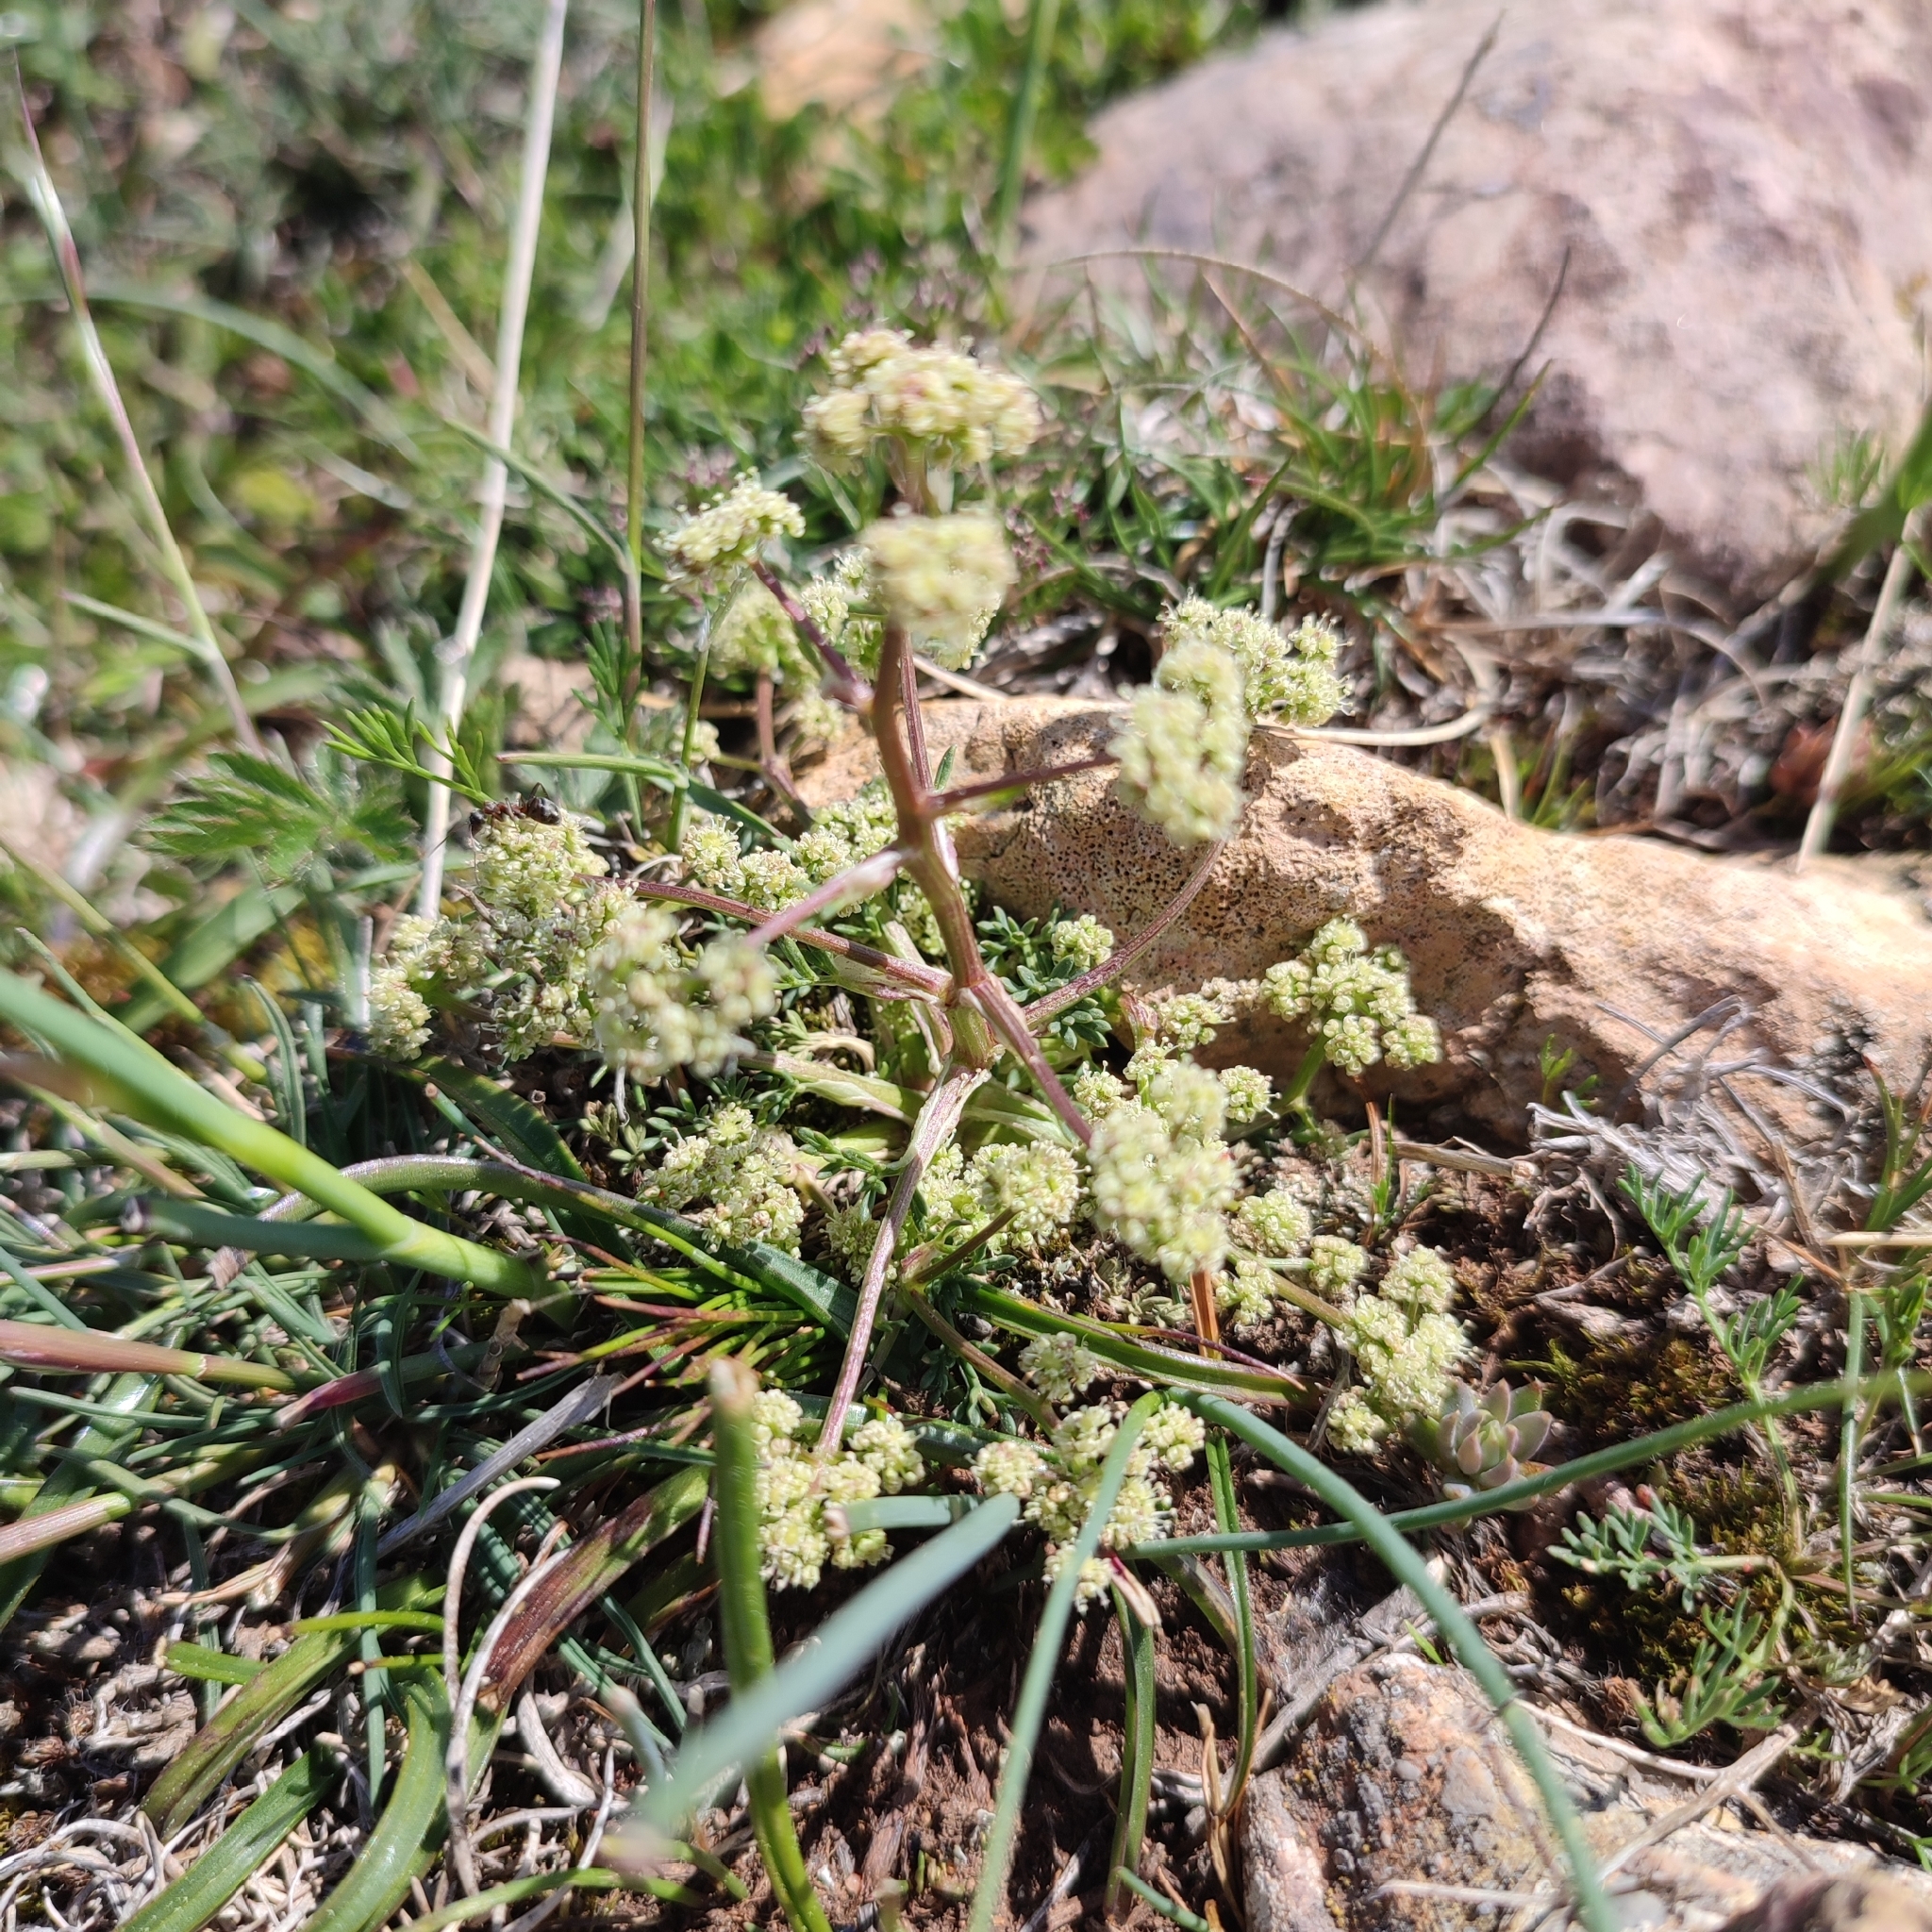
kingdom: Plantae
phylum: Tracheophyta
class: Magnoliopsida
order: Apiales
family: Apiaceae
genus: Seseli
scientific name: Seseli montanum
